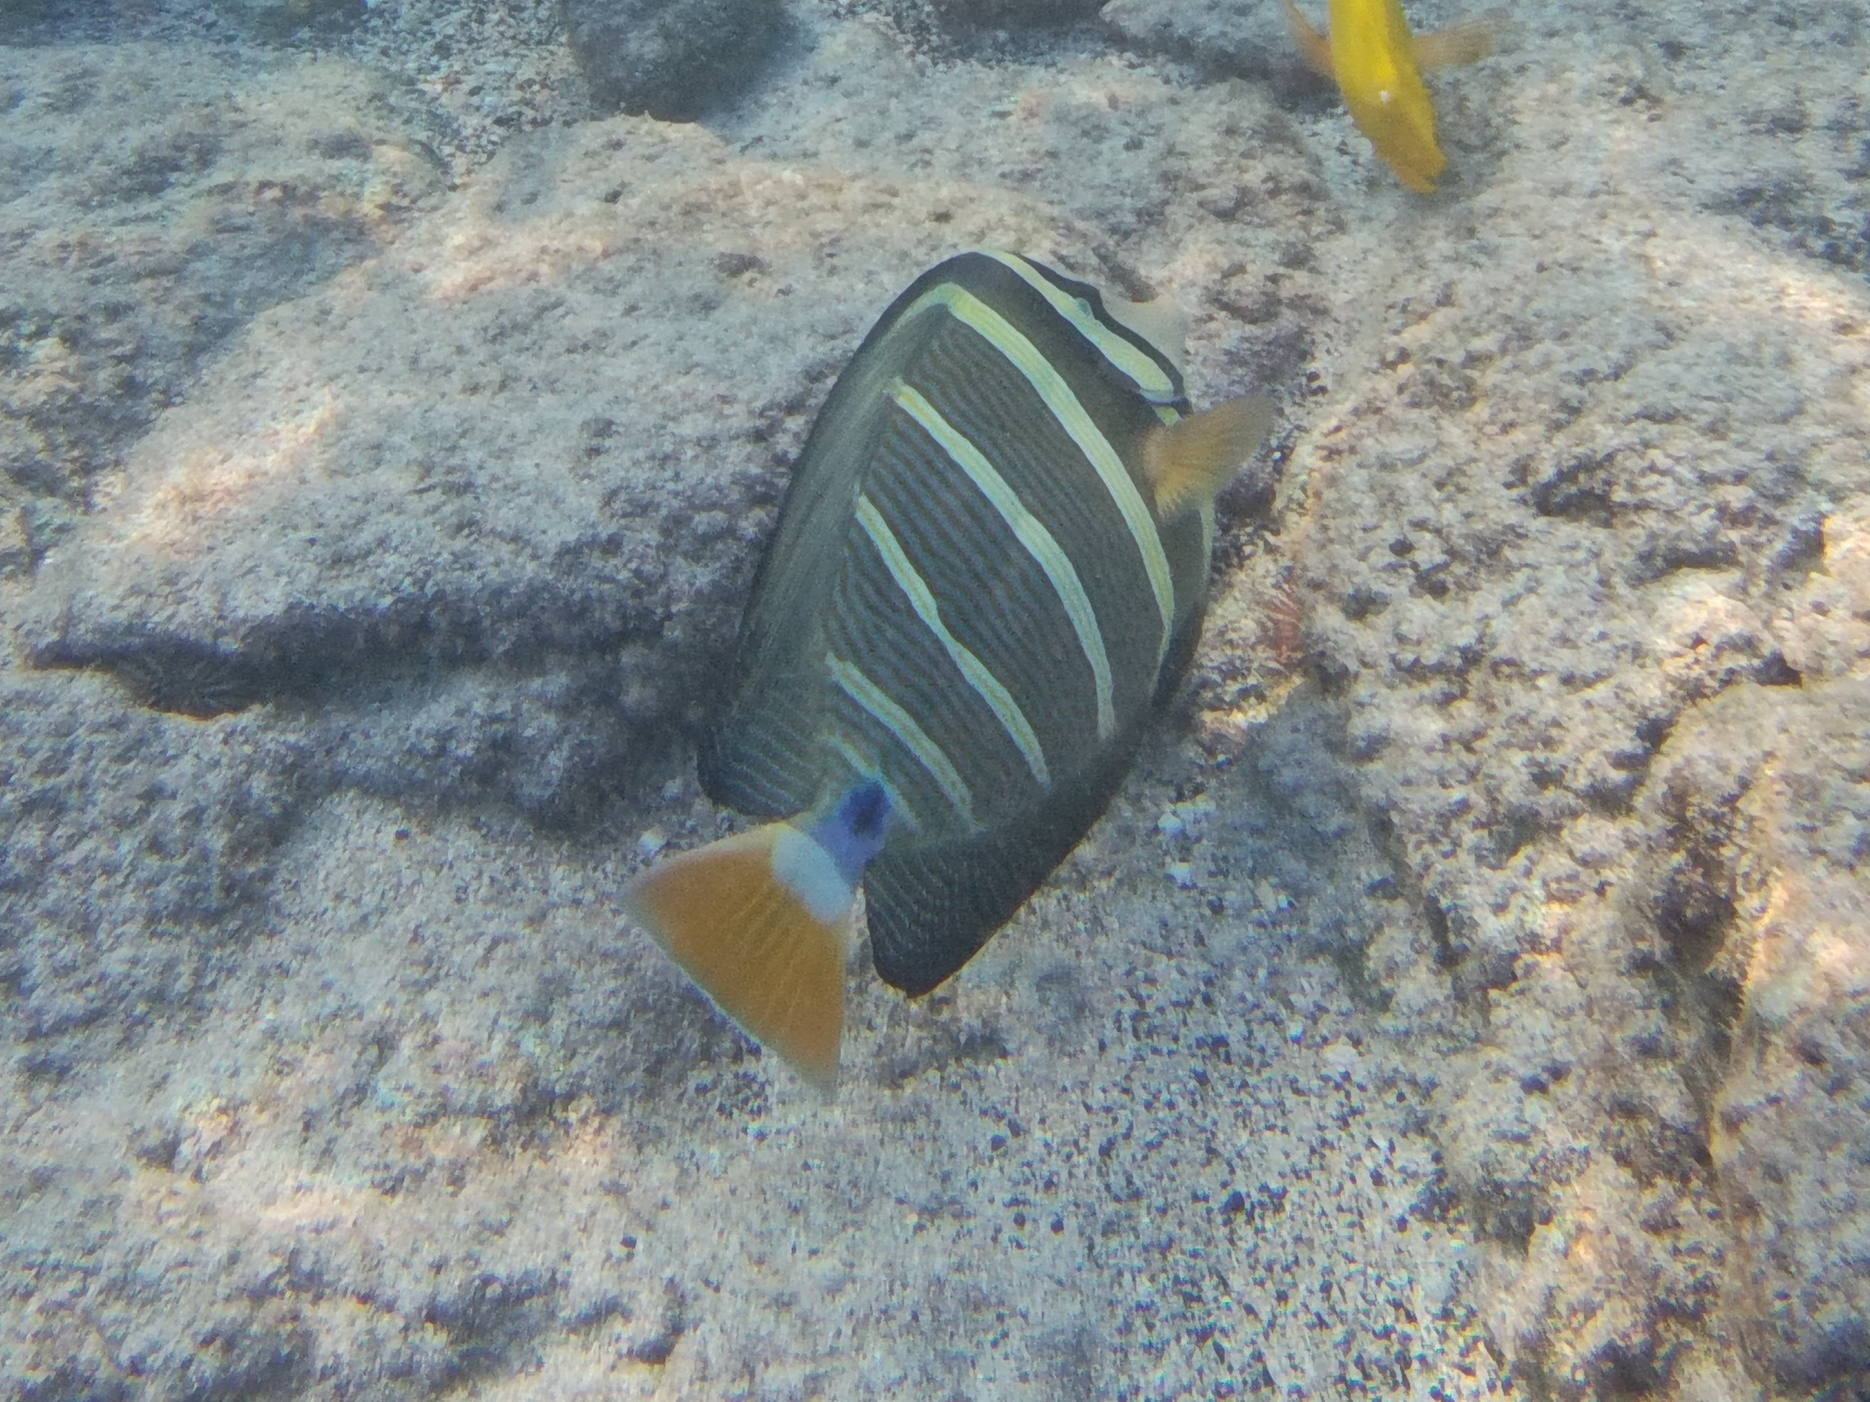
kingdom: Animalia
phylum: Chordata
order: Perciformes
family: Acanthuridae
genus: Zebrasoma
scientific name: Zebrasoma veliferum
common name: Sailfin surgeonfish
